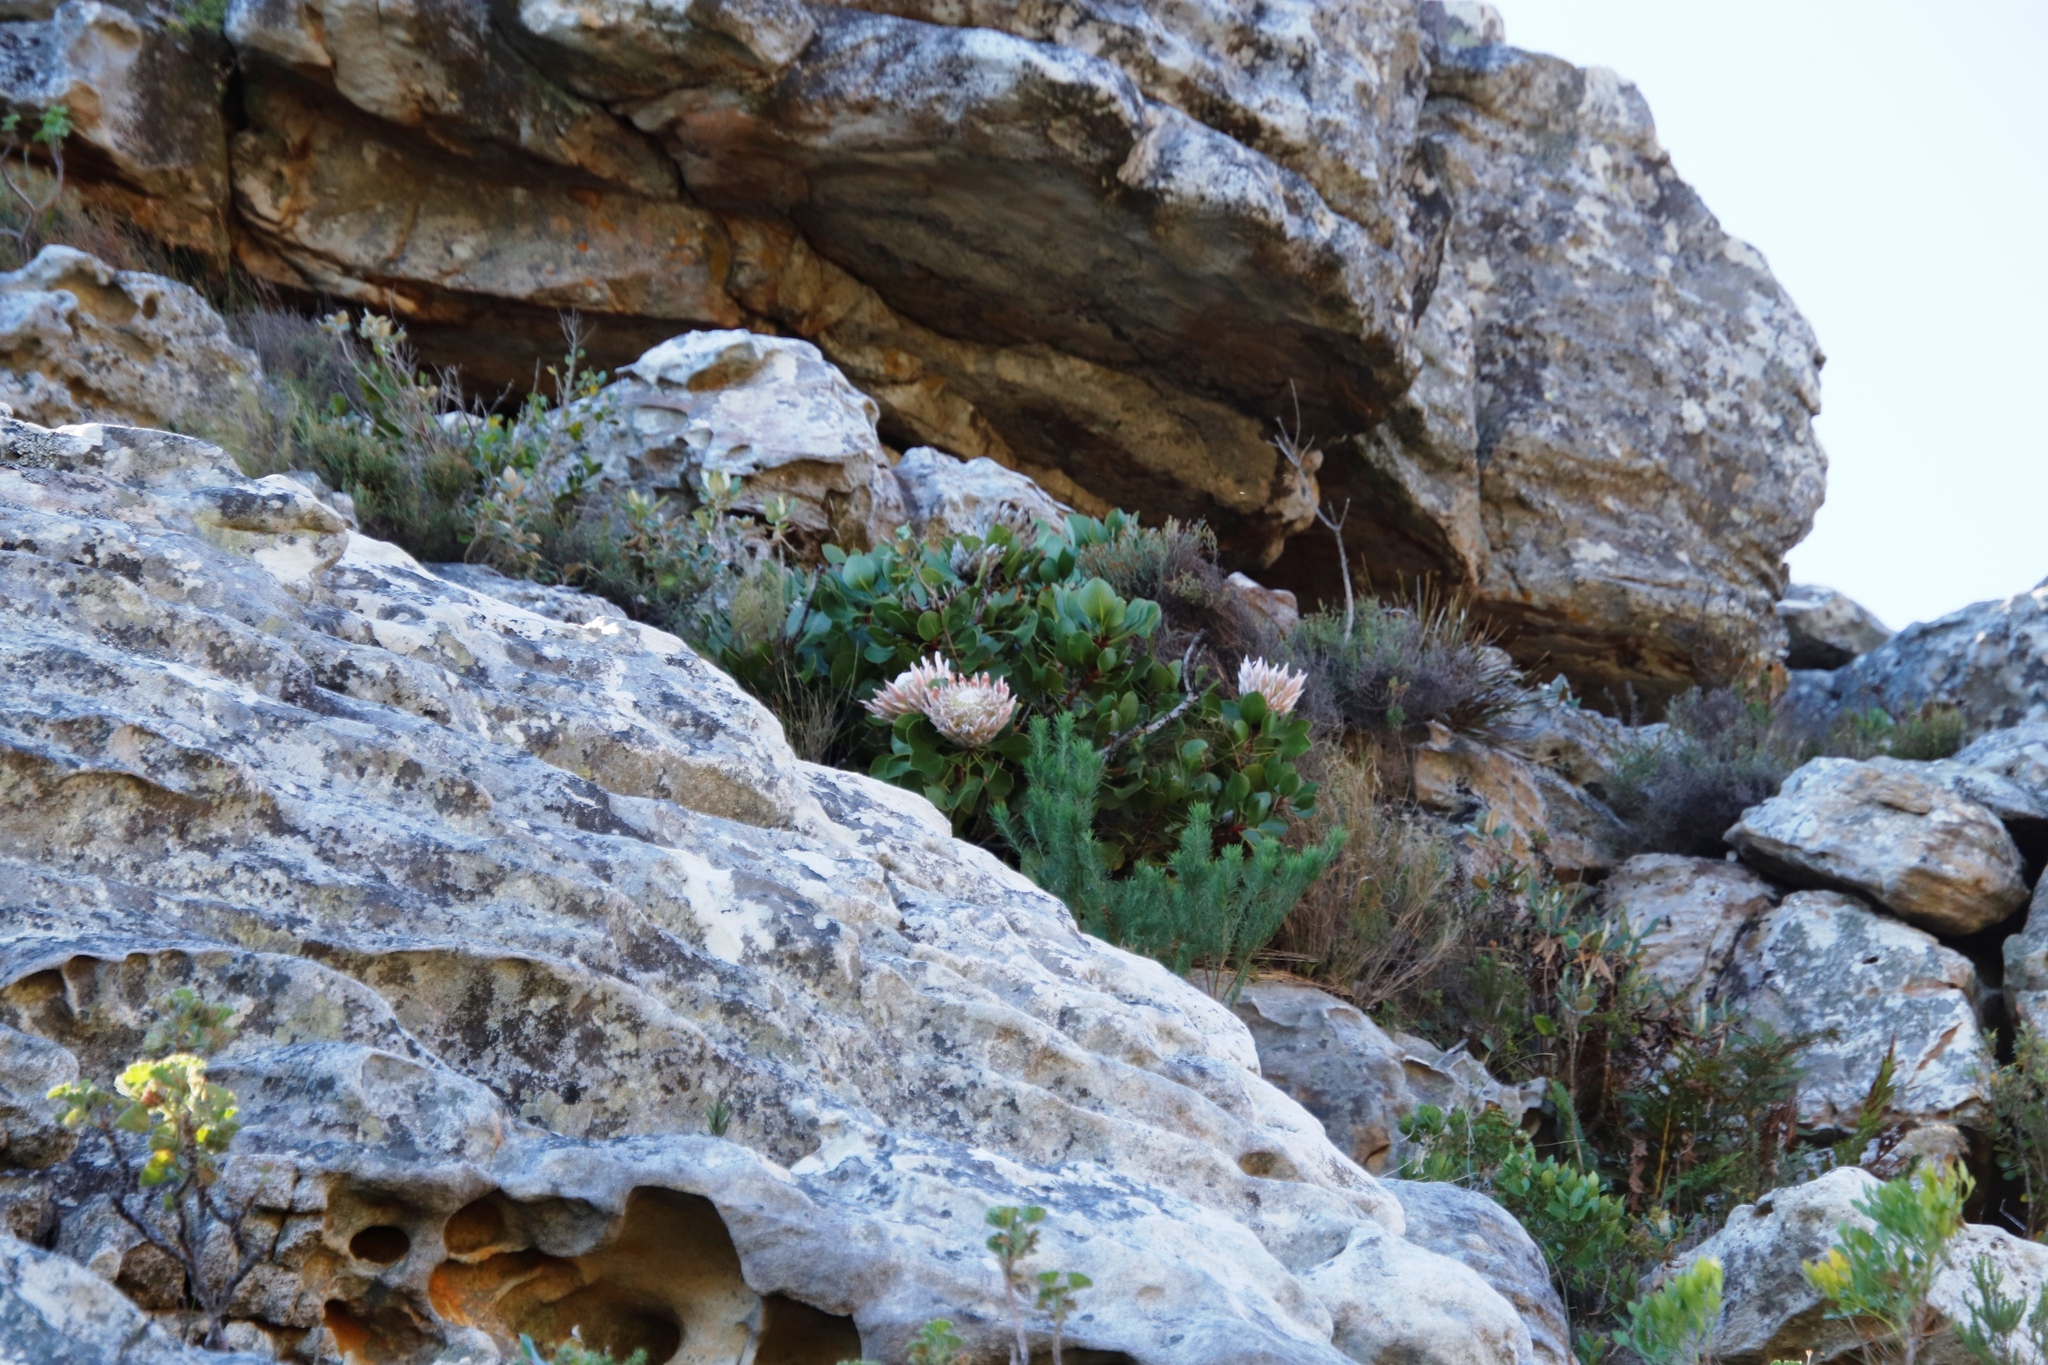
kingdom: Plantae
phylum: Tracheophyta
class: Magnoliopsida
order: Proteales
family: Proteaceae
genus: Protea
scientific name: Protea cynaroides
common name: King protea
